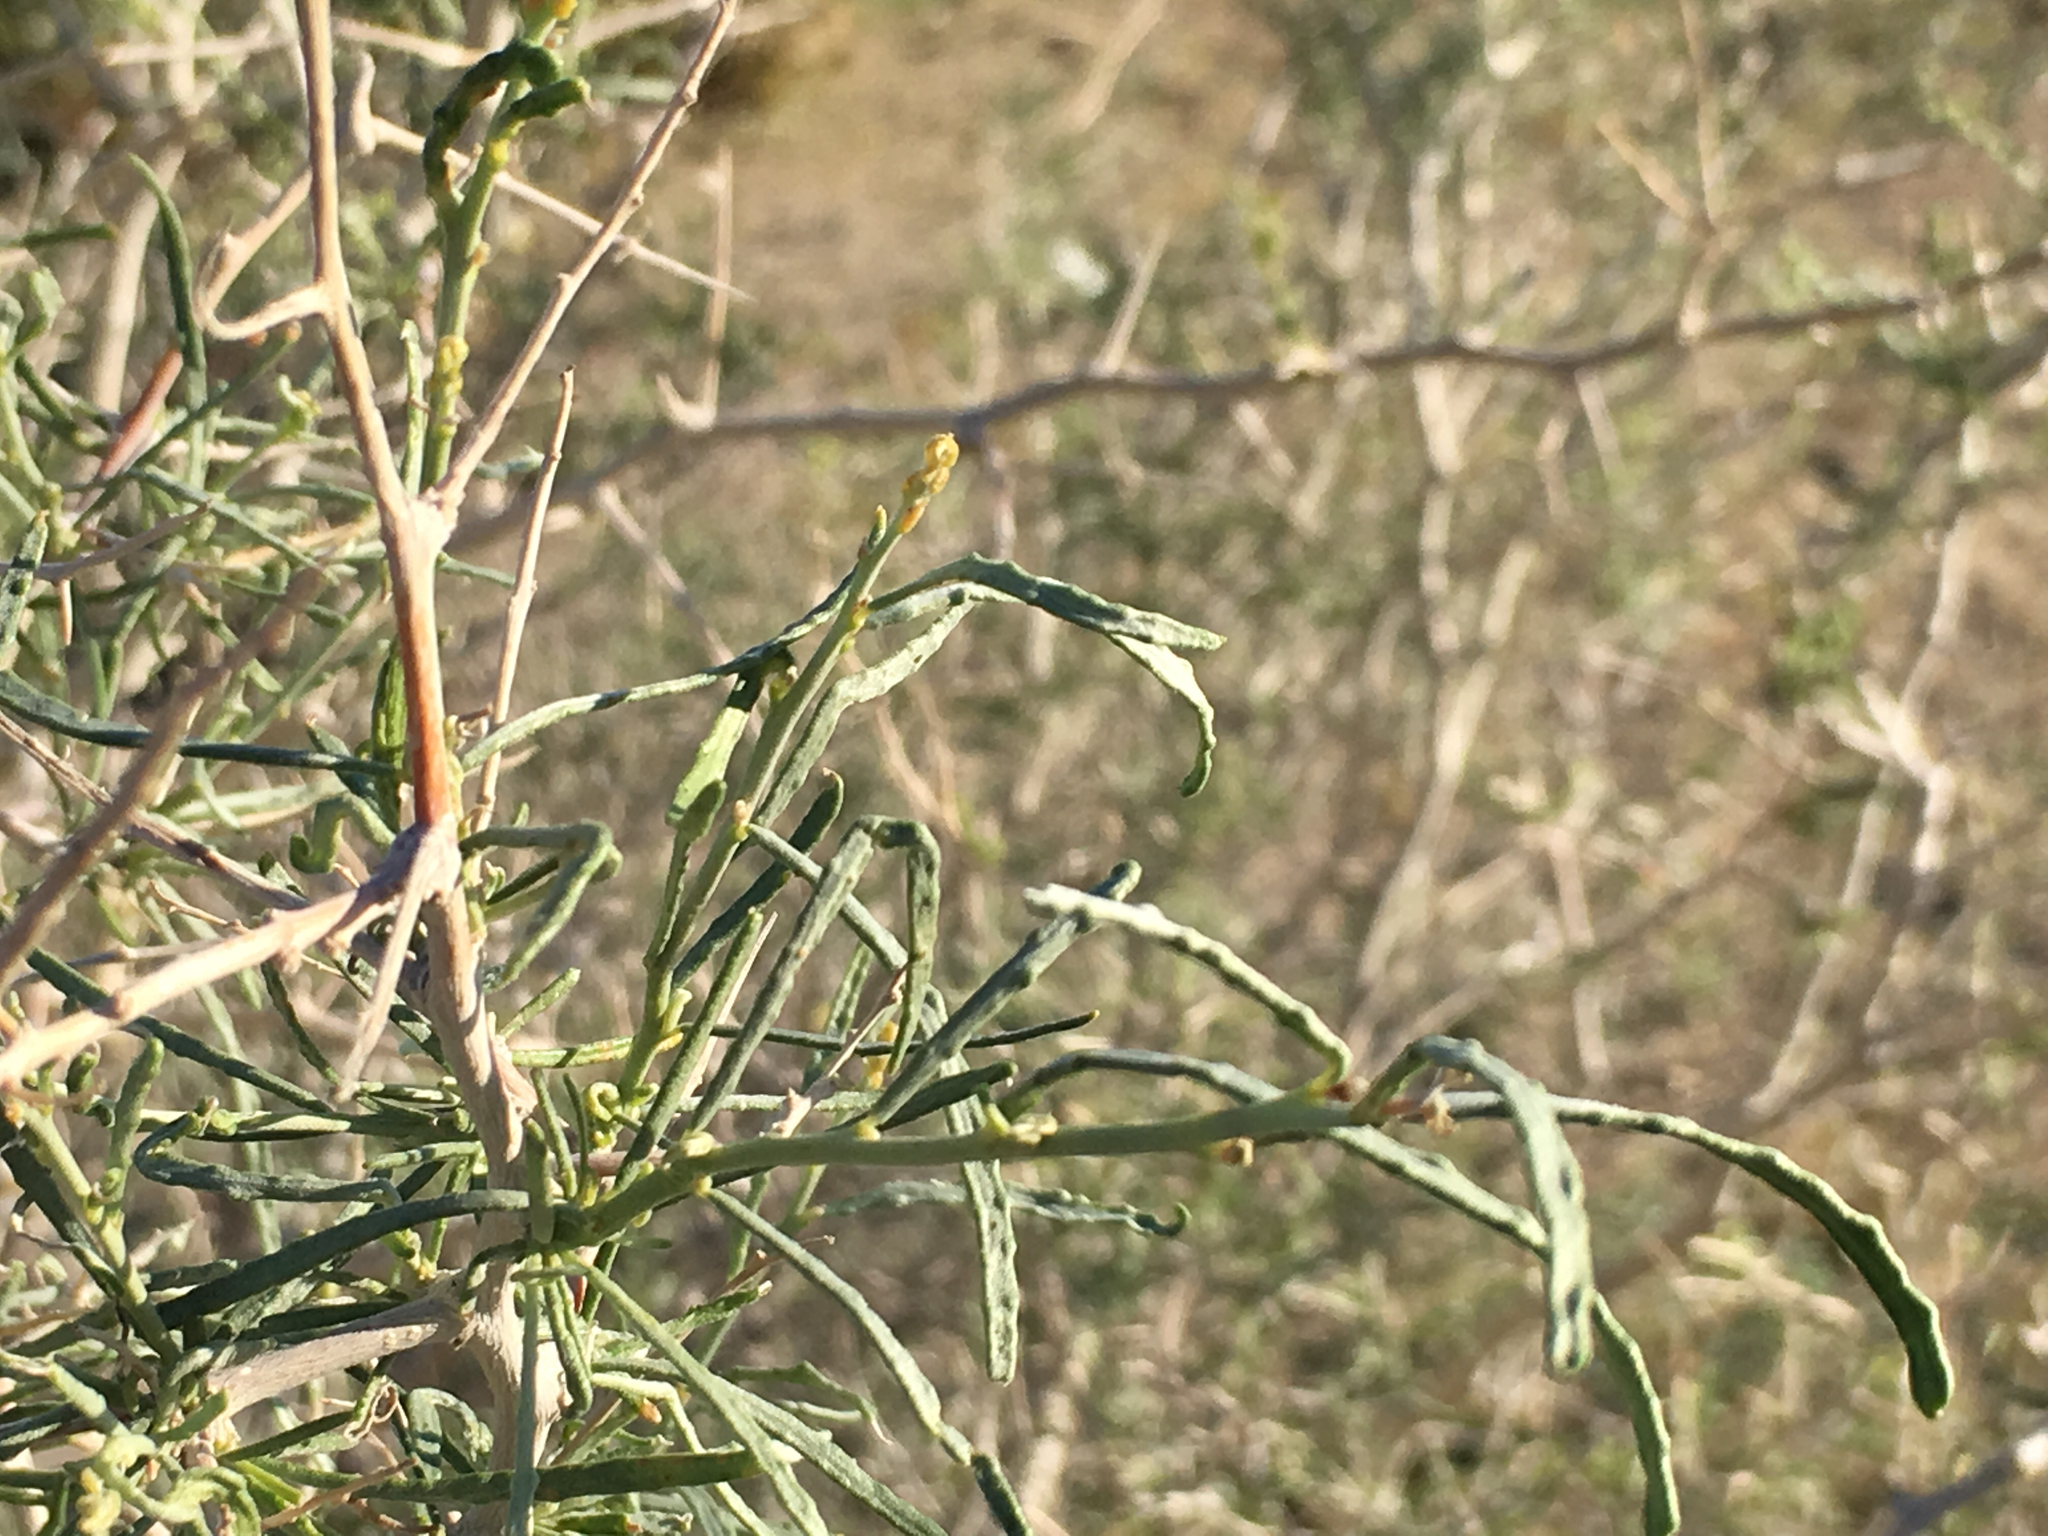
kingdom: Plantae
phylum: Tracheophyta
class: Magnoliopsida
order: Fabales
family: Fabaceae
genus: Psorothamnus
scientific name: Psorothamnus schottii
